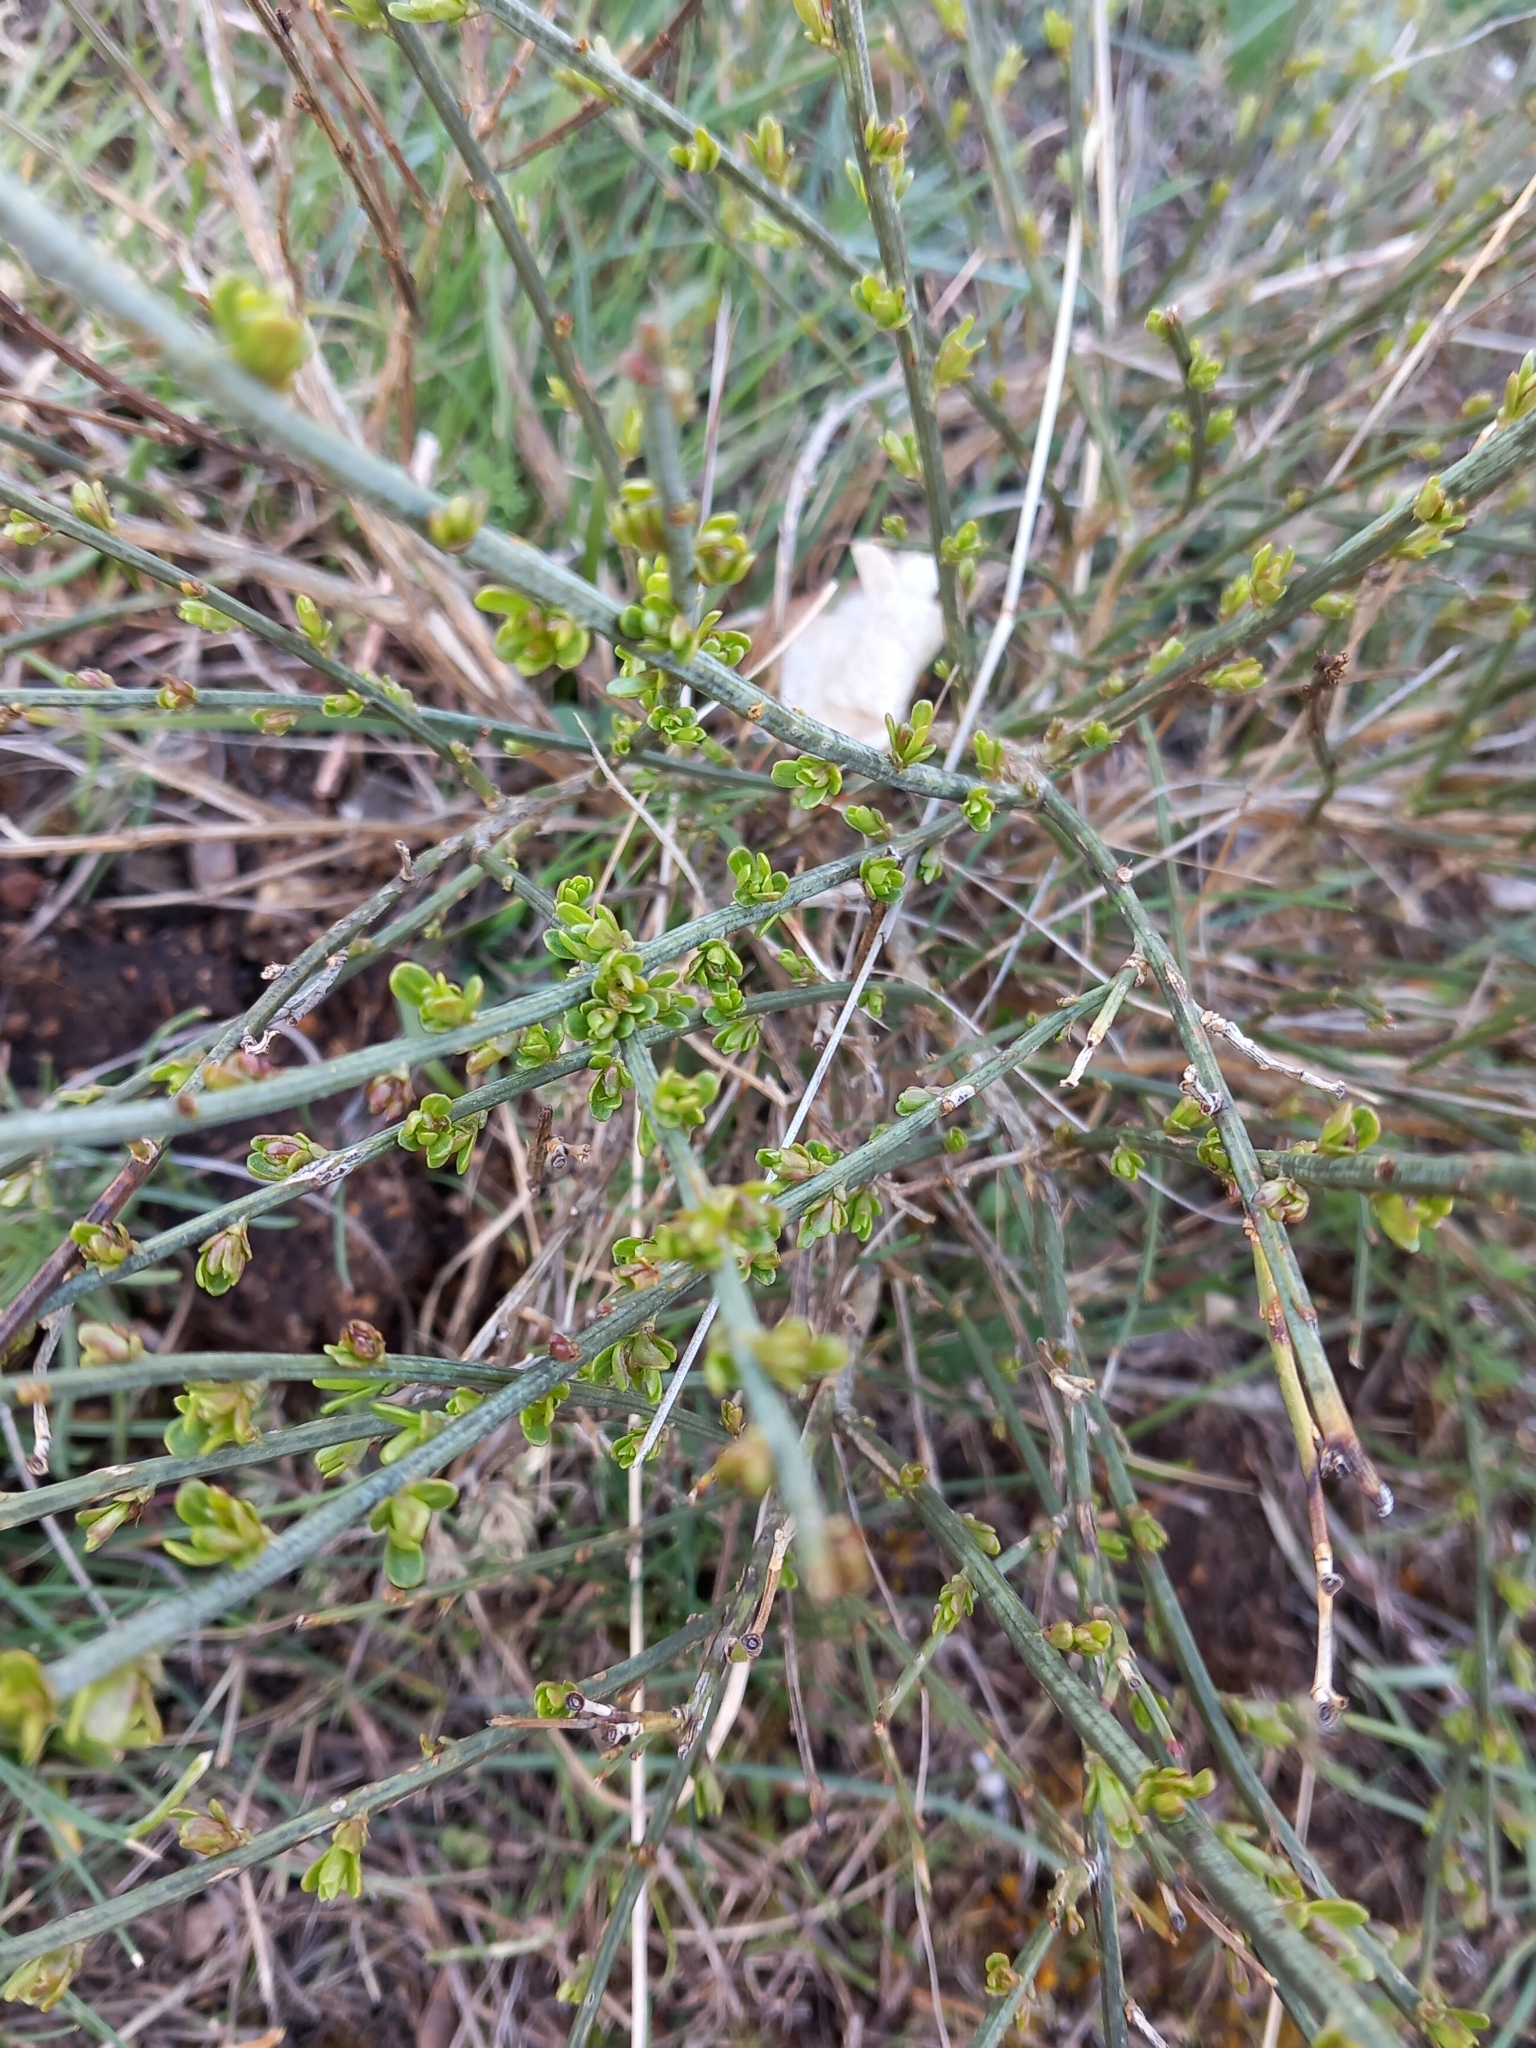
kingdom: Plantae
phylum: Tracheophyta
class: Magnoliopsida
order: Santalales
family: Santalaceae
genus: Osyris
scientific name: Osyris alba
